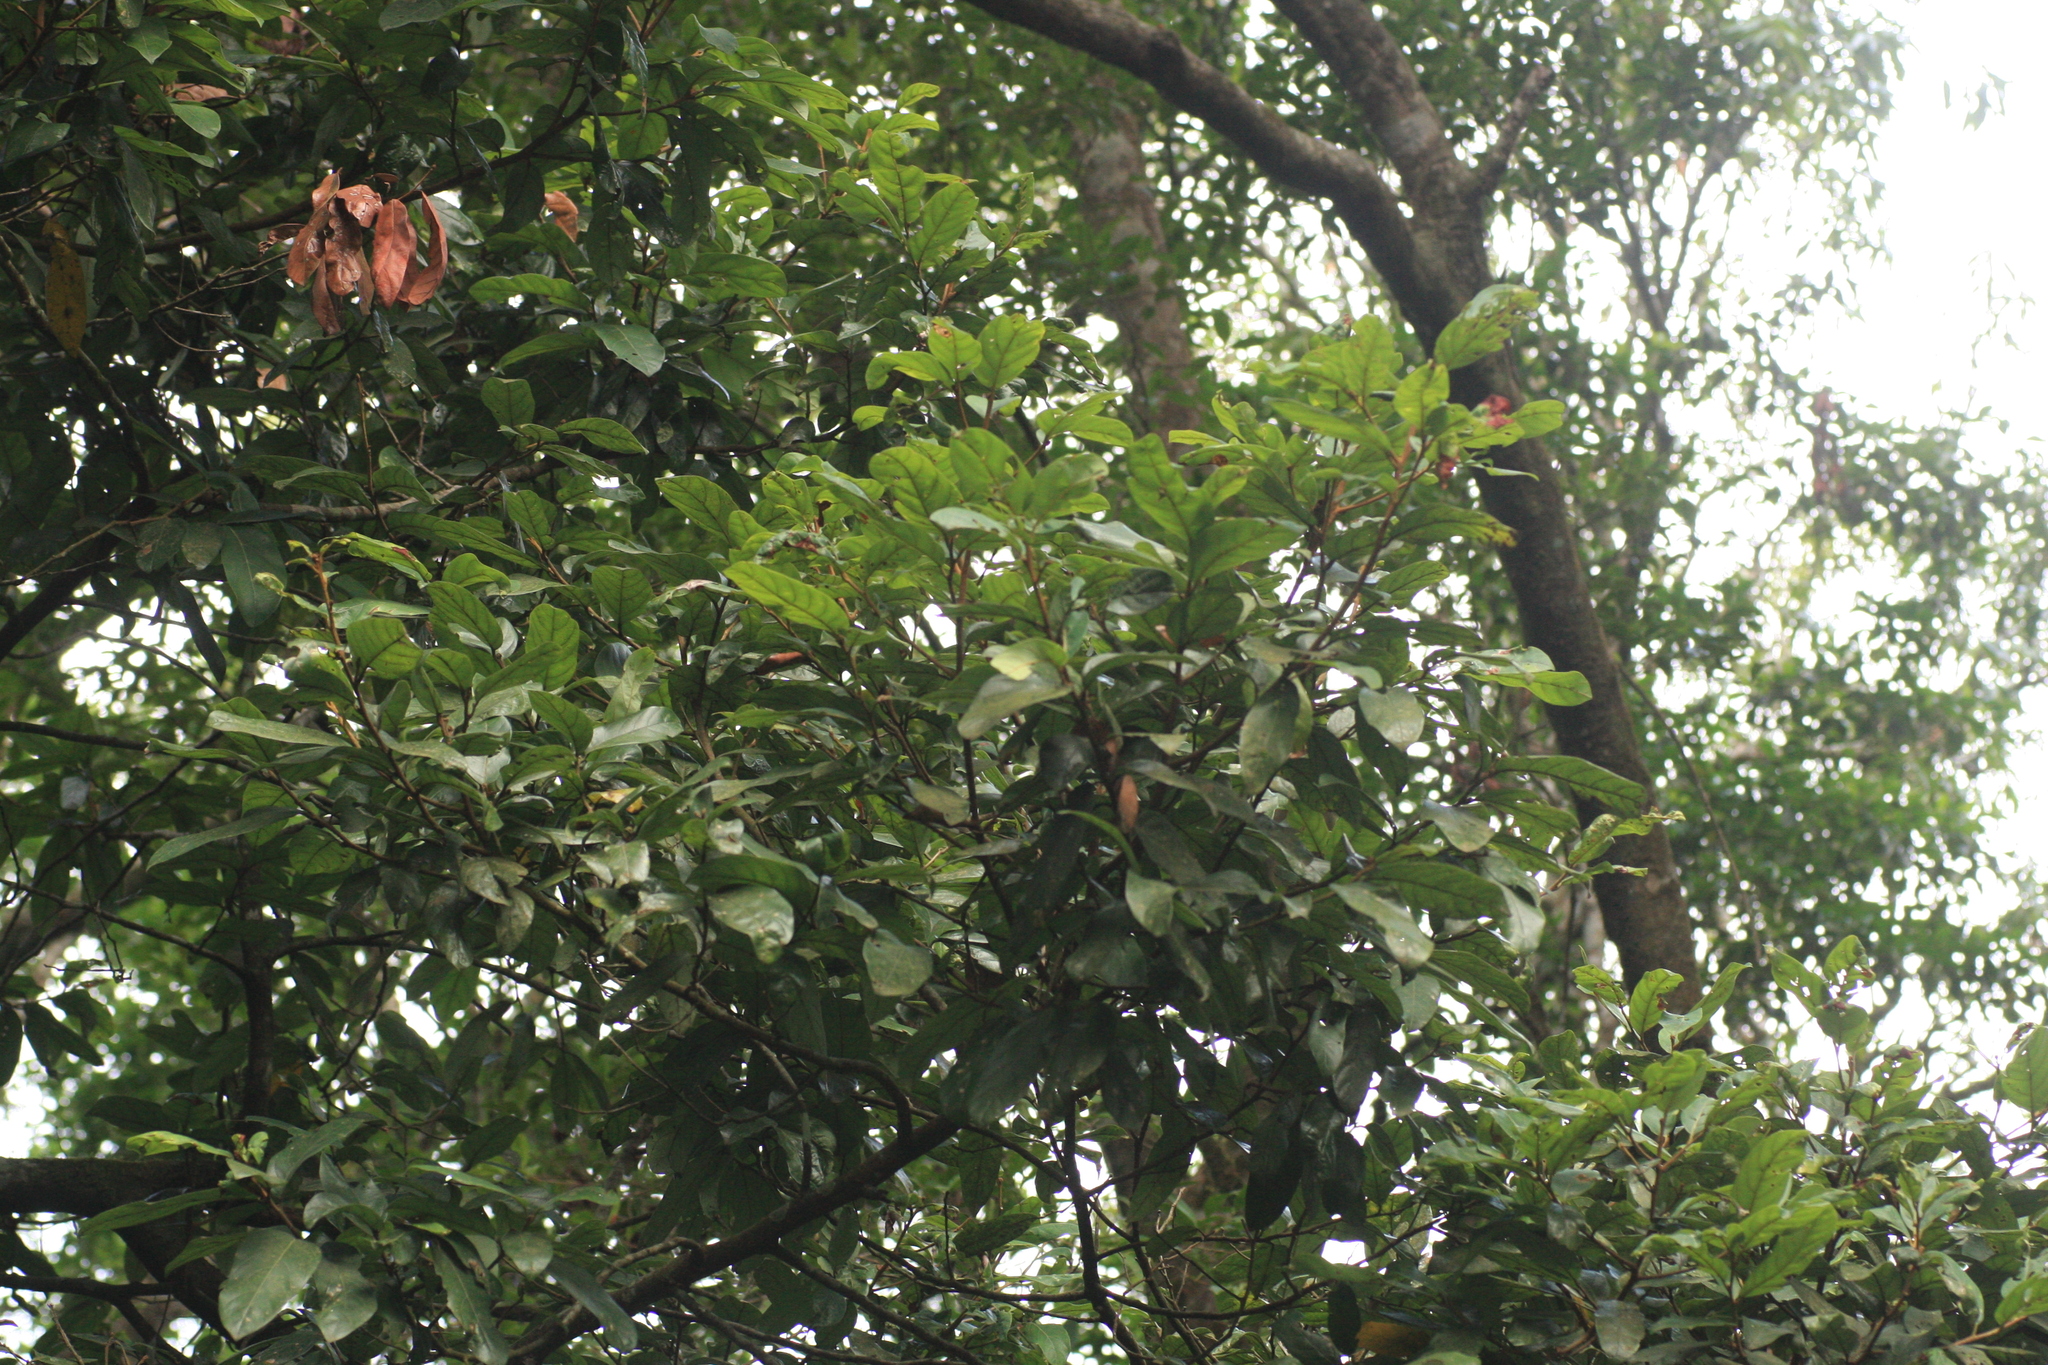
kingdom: Plantae
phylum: Tracheophyta
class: Magnoliopsida
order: Laurales
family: Lauraceae
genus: Cryptocarya
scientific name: Cryptocarya wightiana
